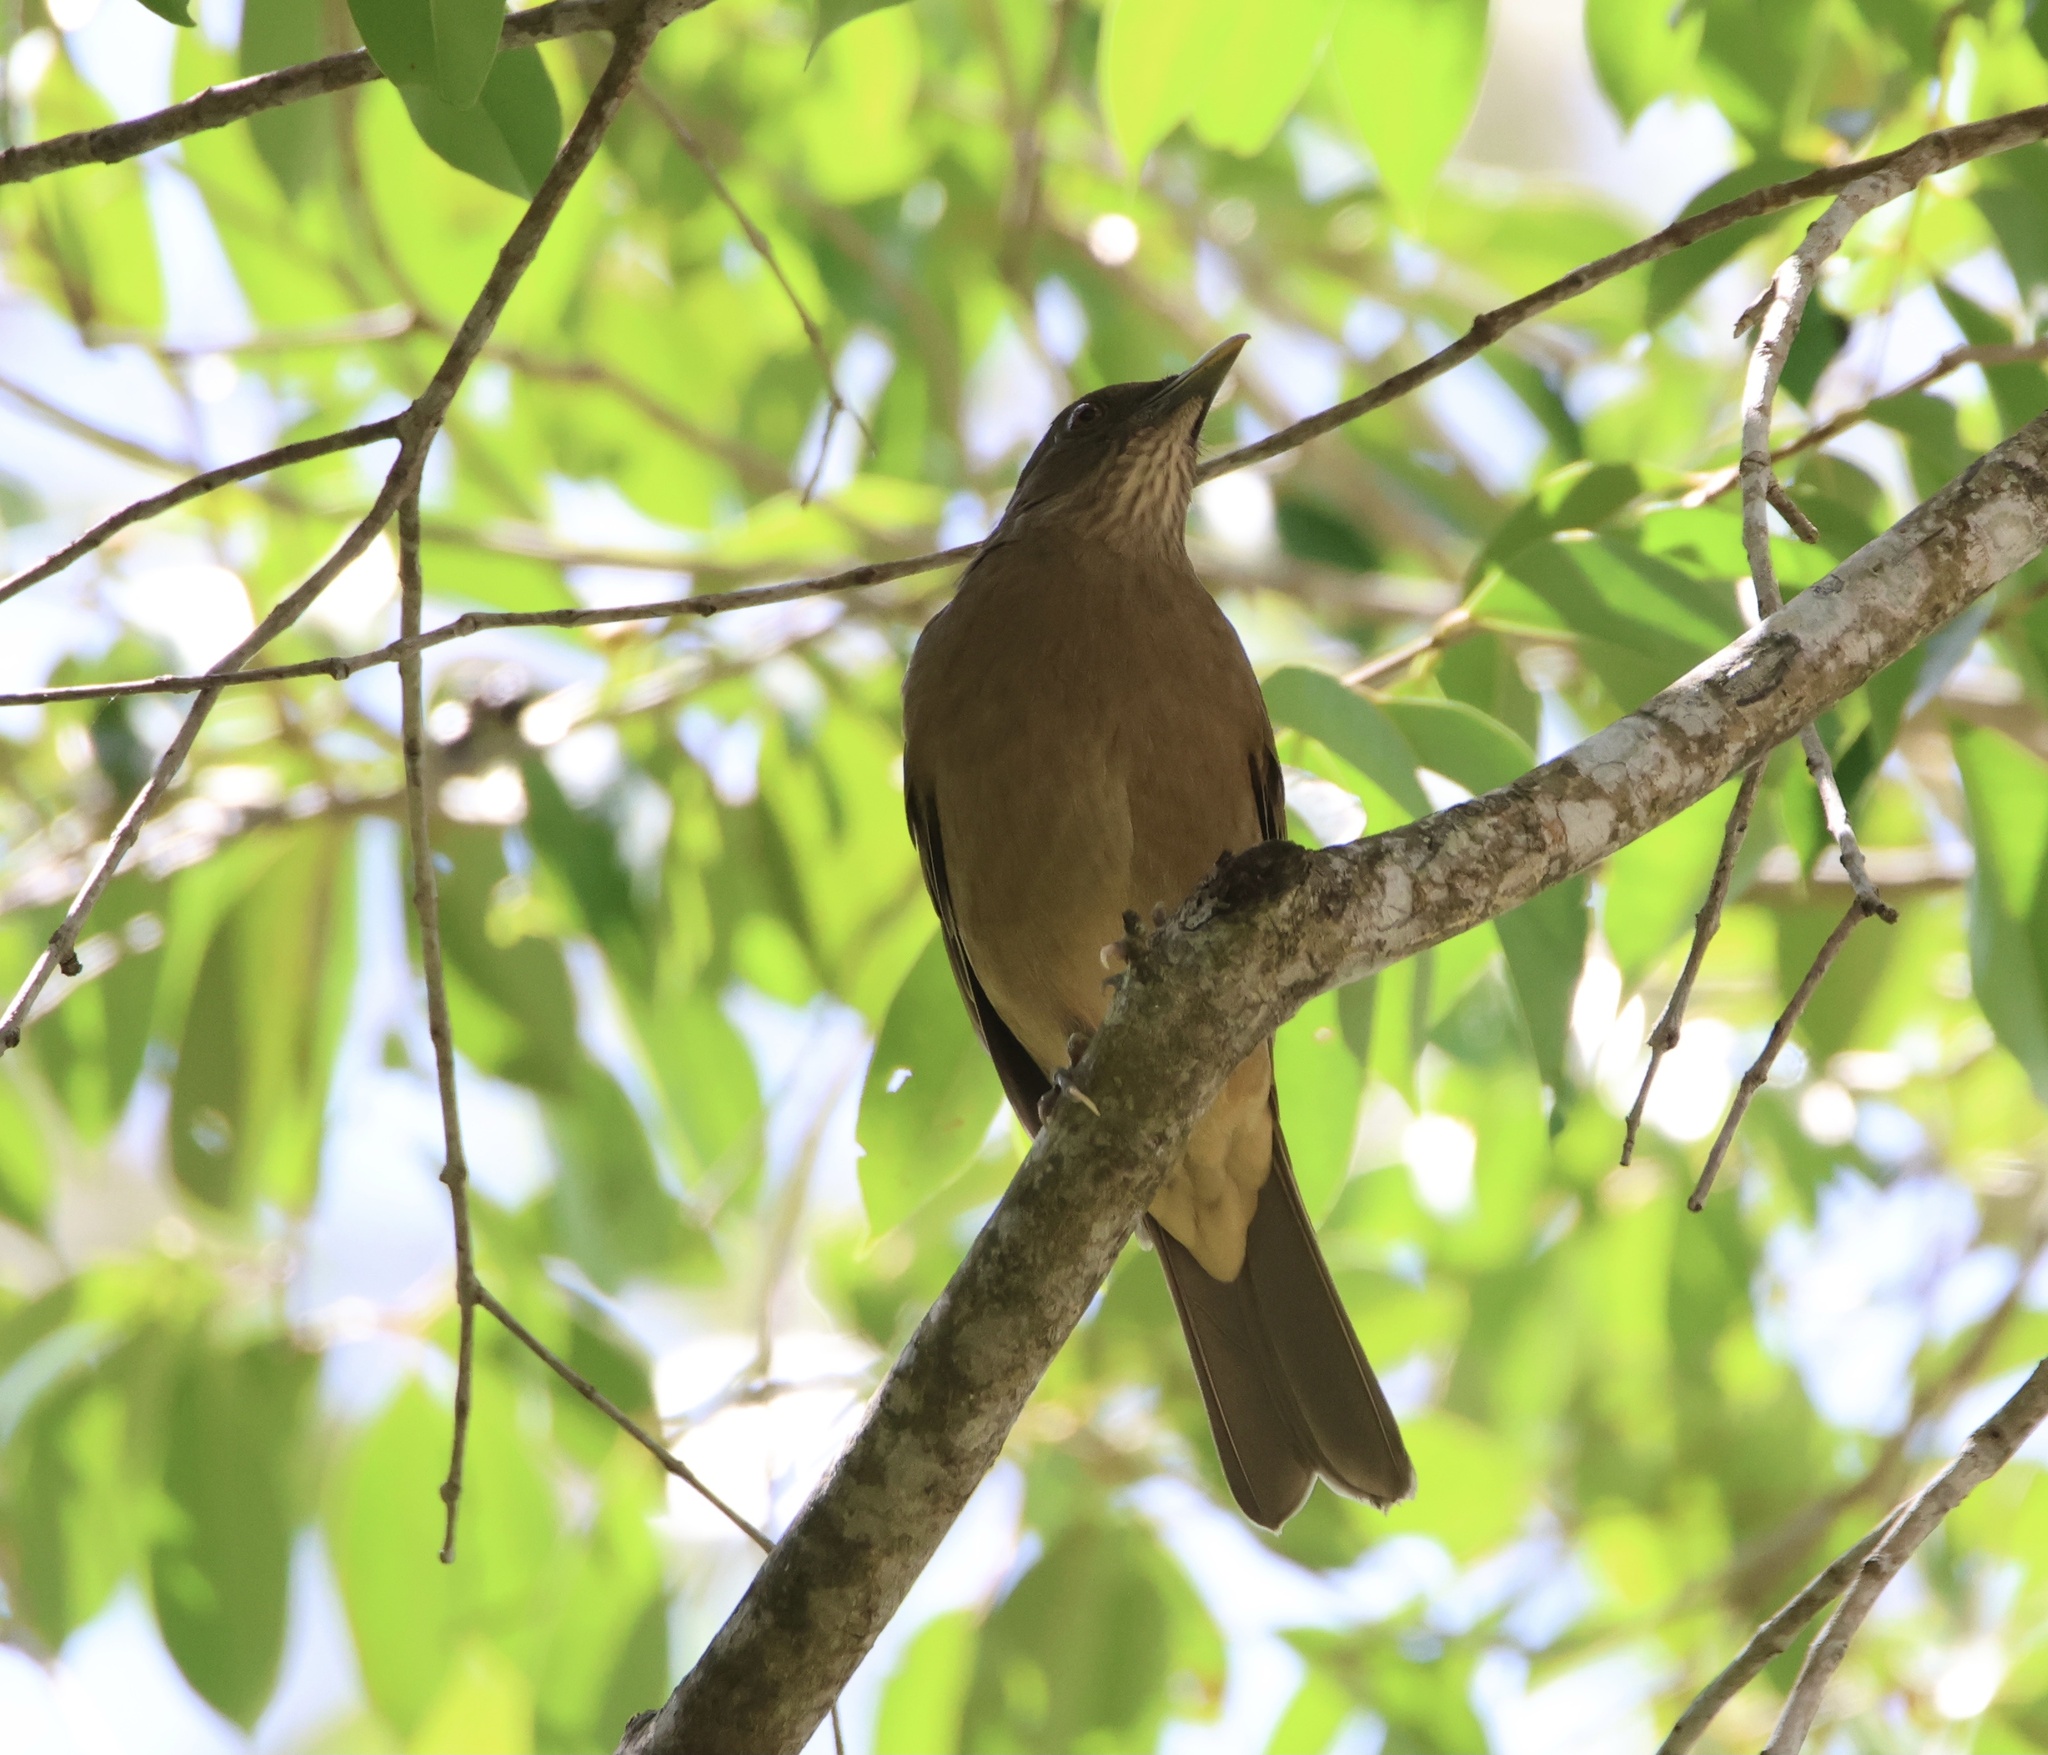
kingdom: Animalia
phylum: Chordata
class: Aves
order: Passeriformes
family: Turdidae
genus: Turdus
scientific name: Turdus grayi
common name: Clay-colored thrush
